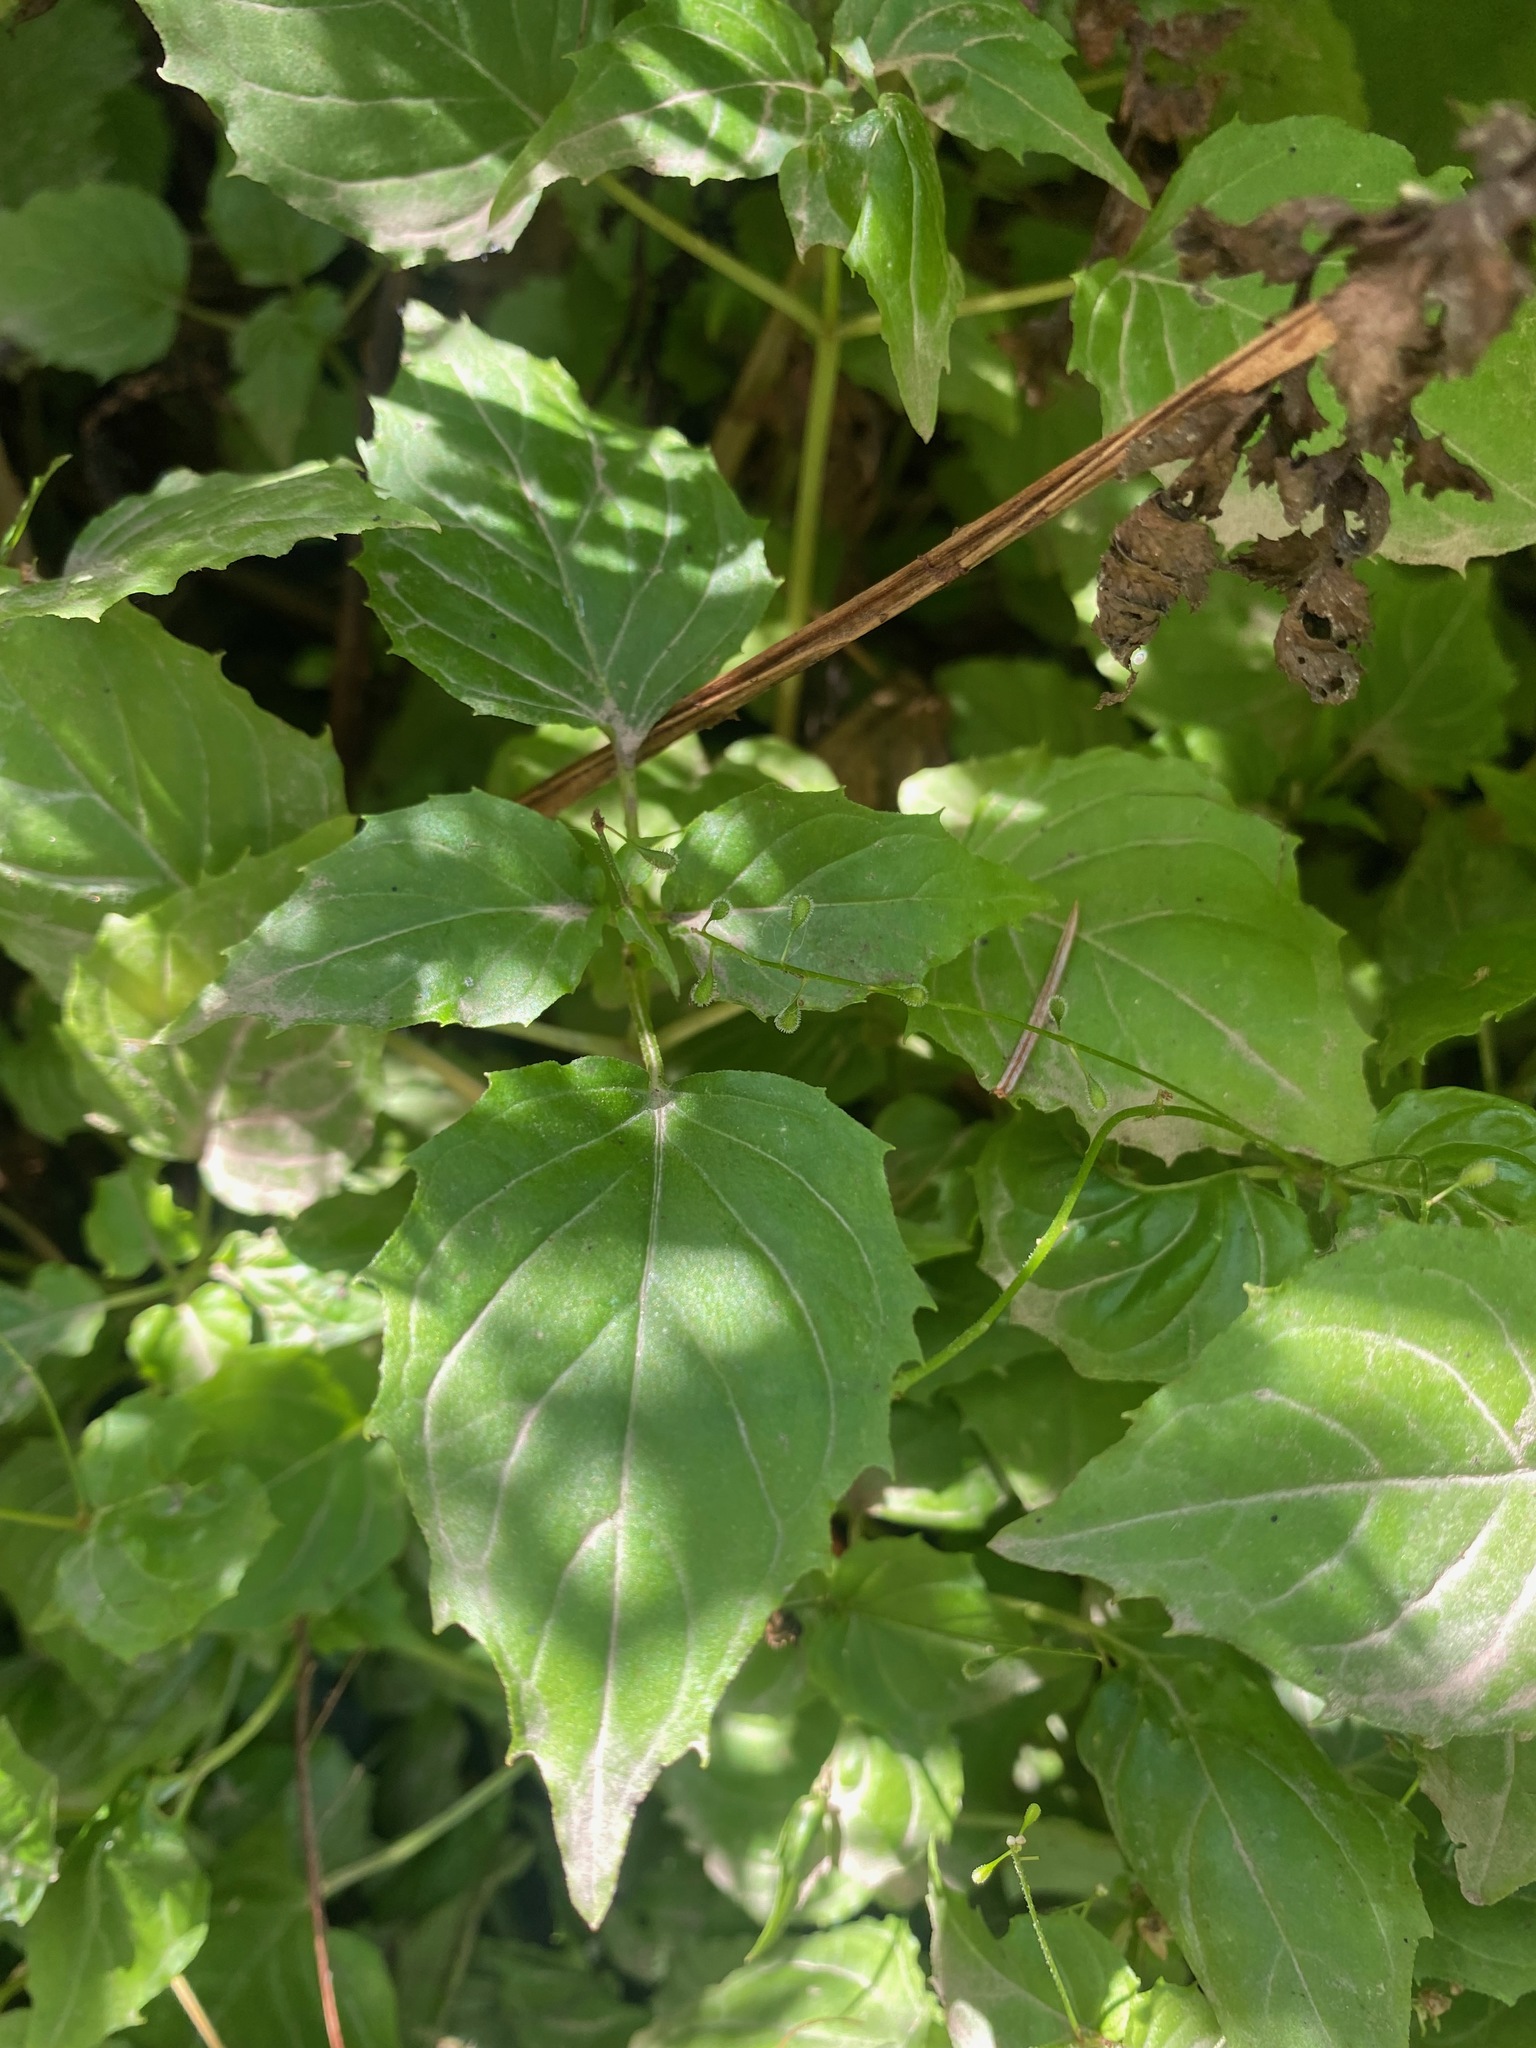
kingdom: Plantae
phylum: Tracheophyta
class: Magnoliopsida
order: Myrtales
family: Onagraceae
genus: Circaea
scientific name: Circaea alpina
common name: Alpine enchanter's-nightshade
